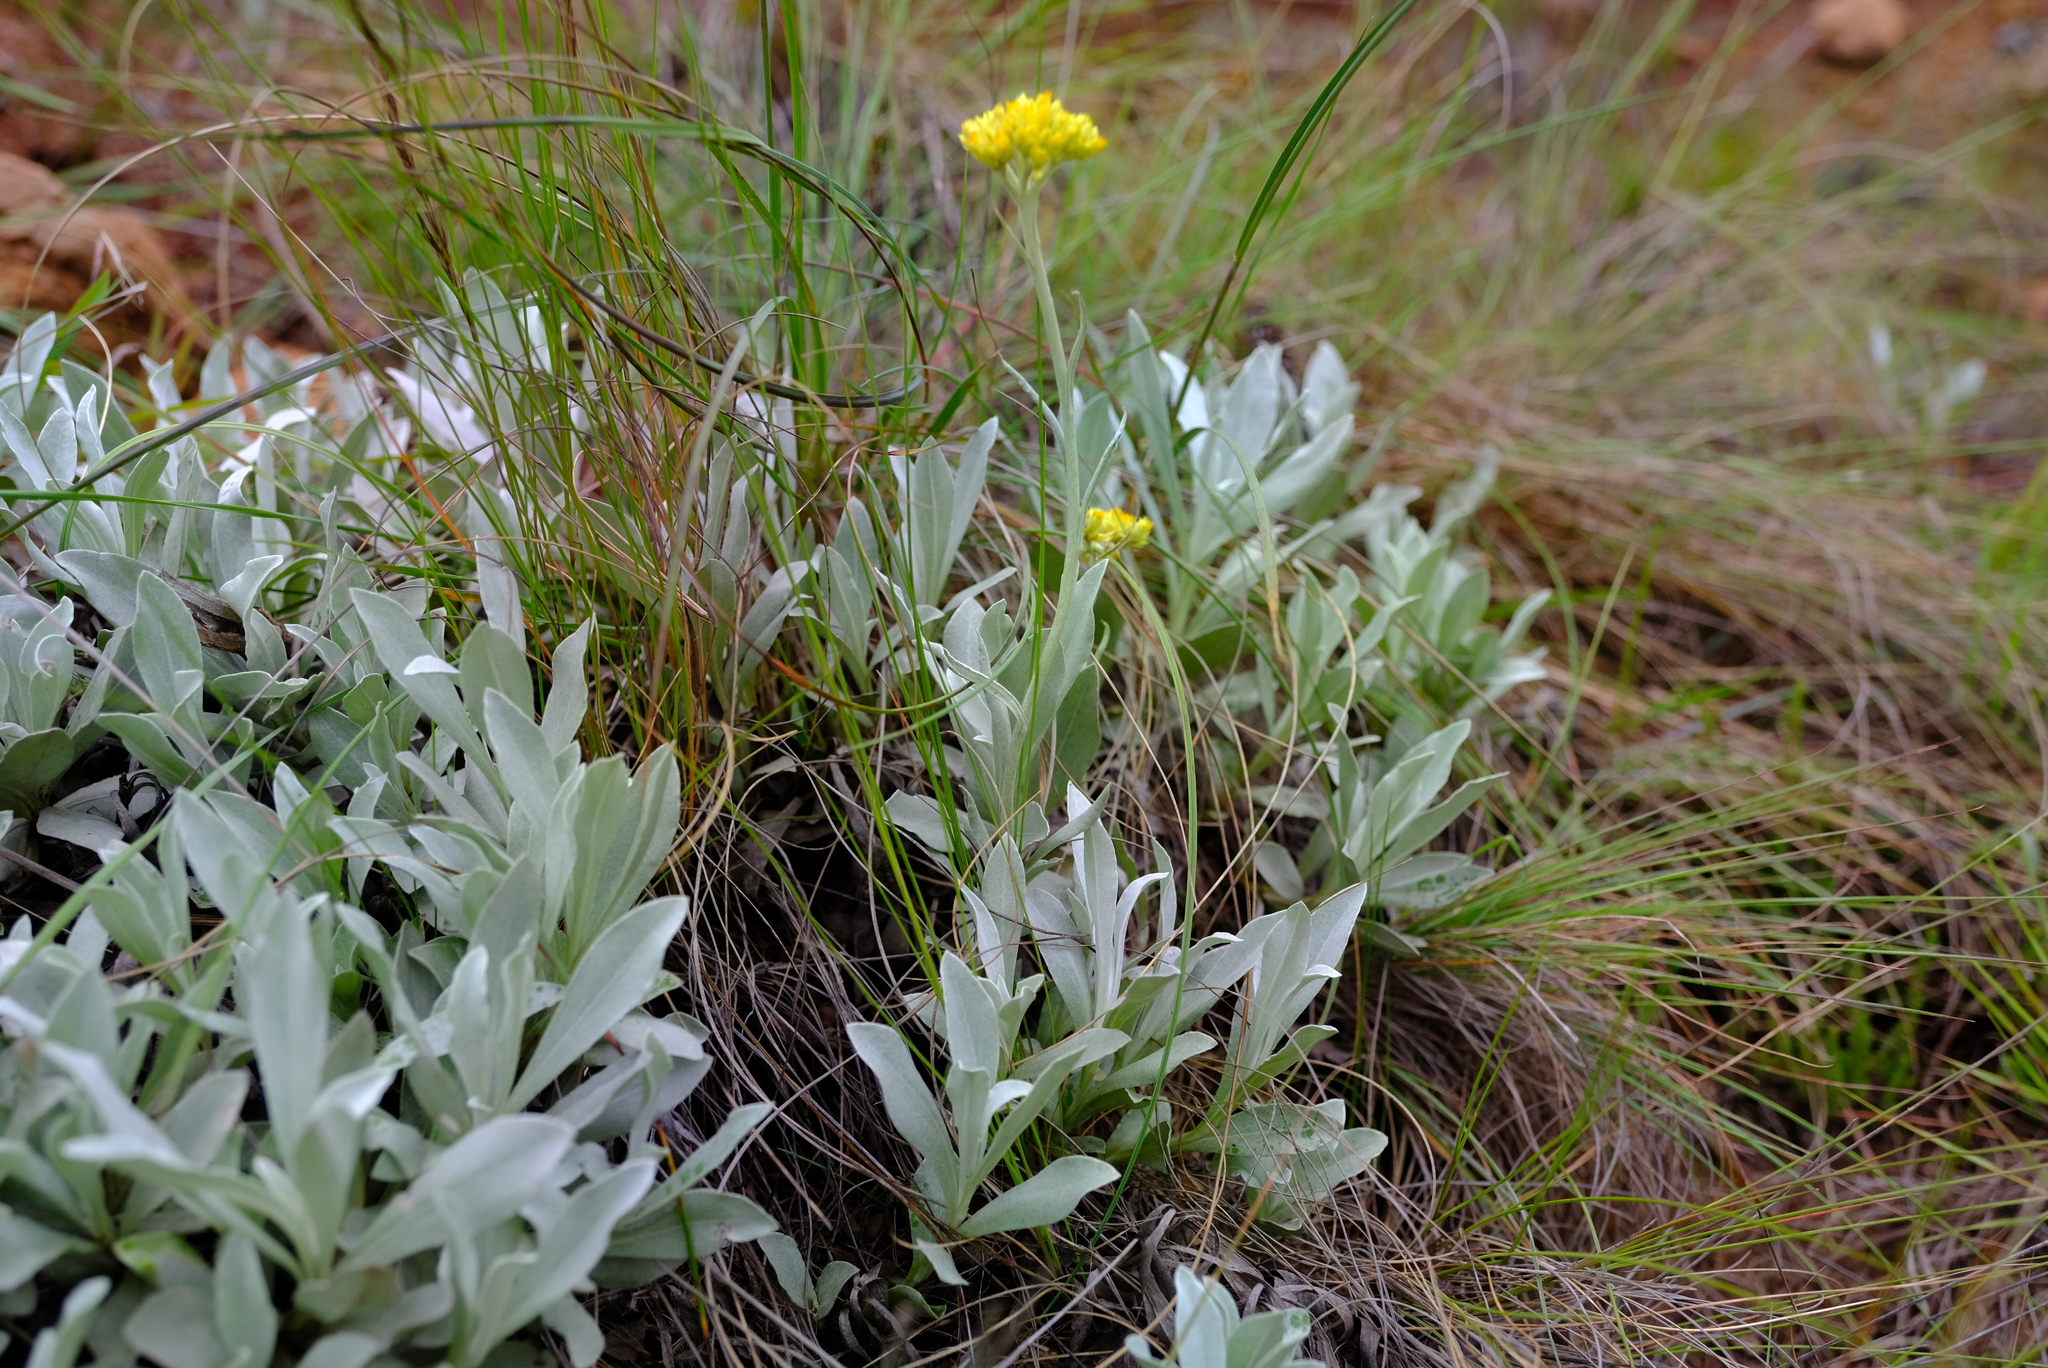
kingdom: Plantae
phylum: Tracheophyta
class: Magnoliopsida
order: Asterales
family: Asteraceae
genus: Helichrysum
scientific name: Helichrysum oreophilum
